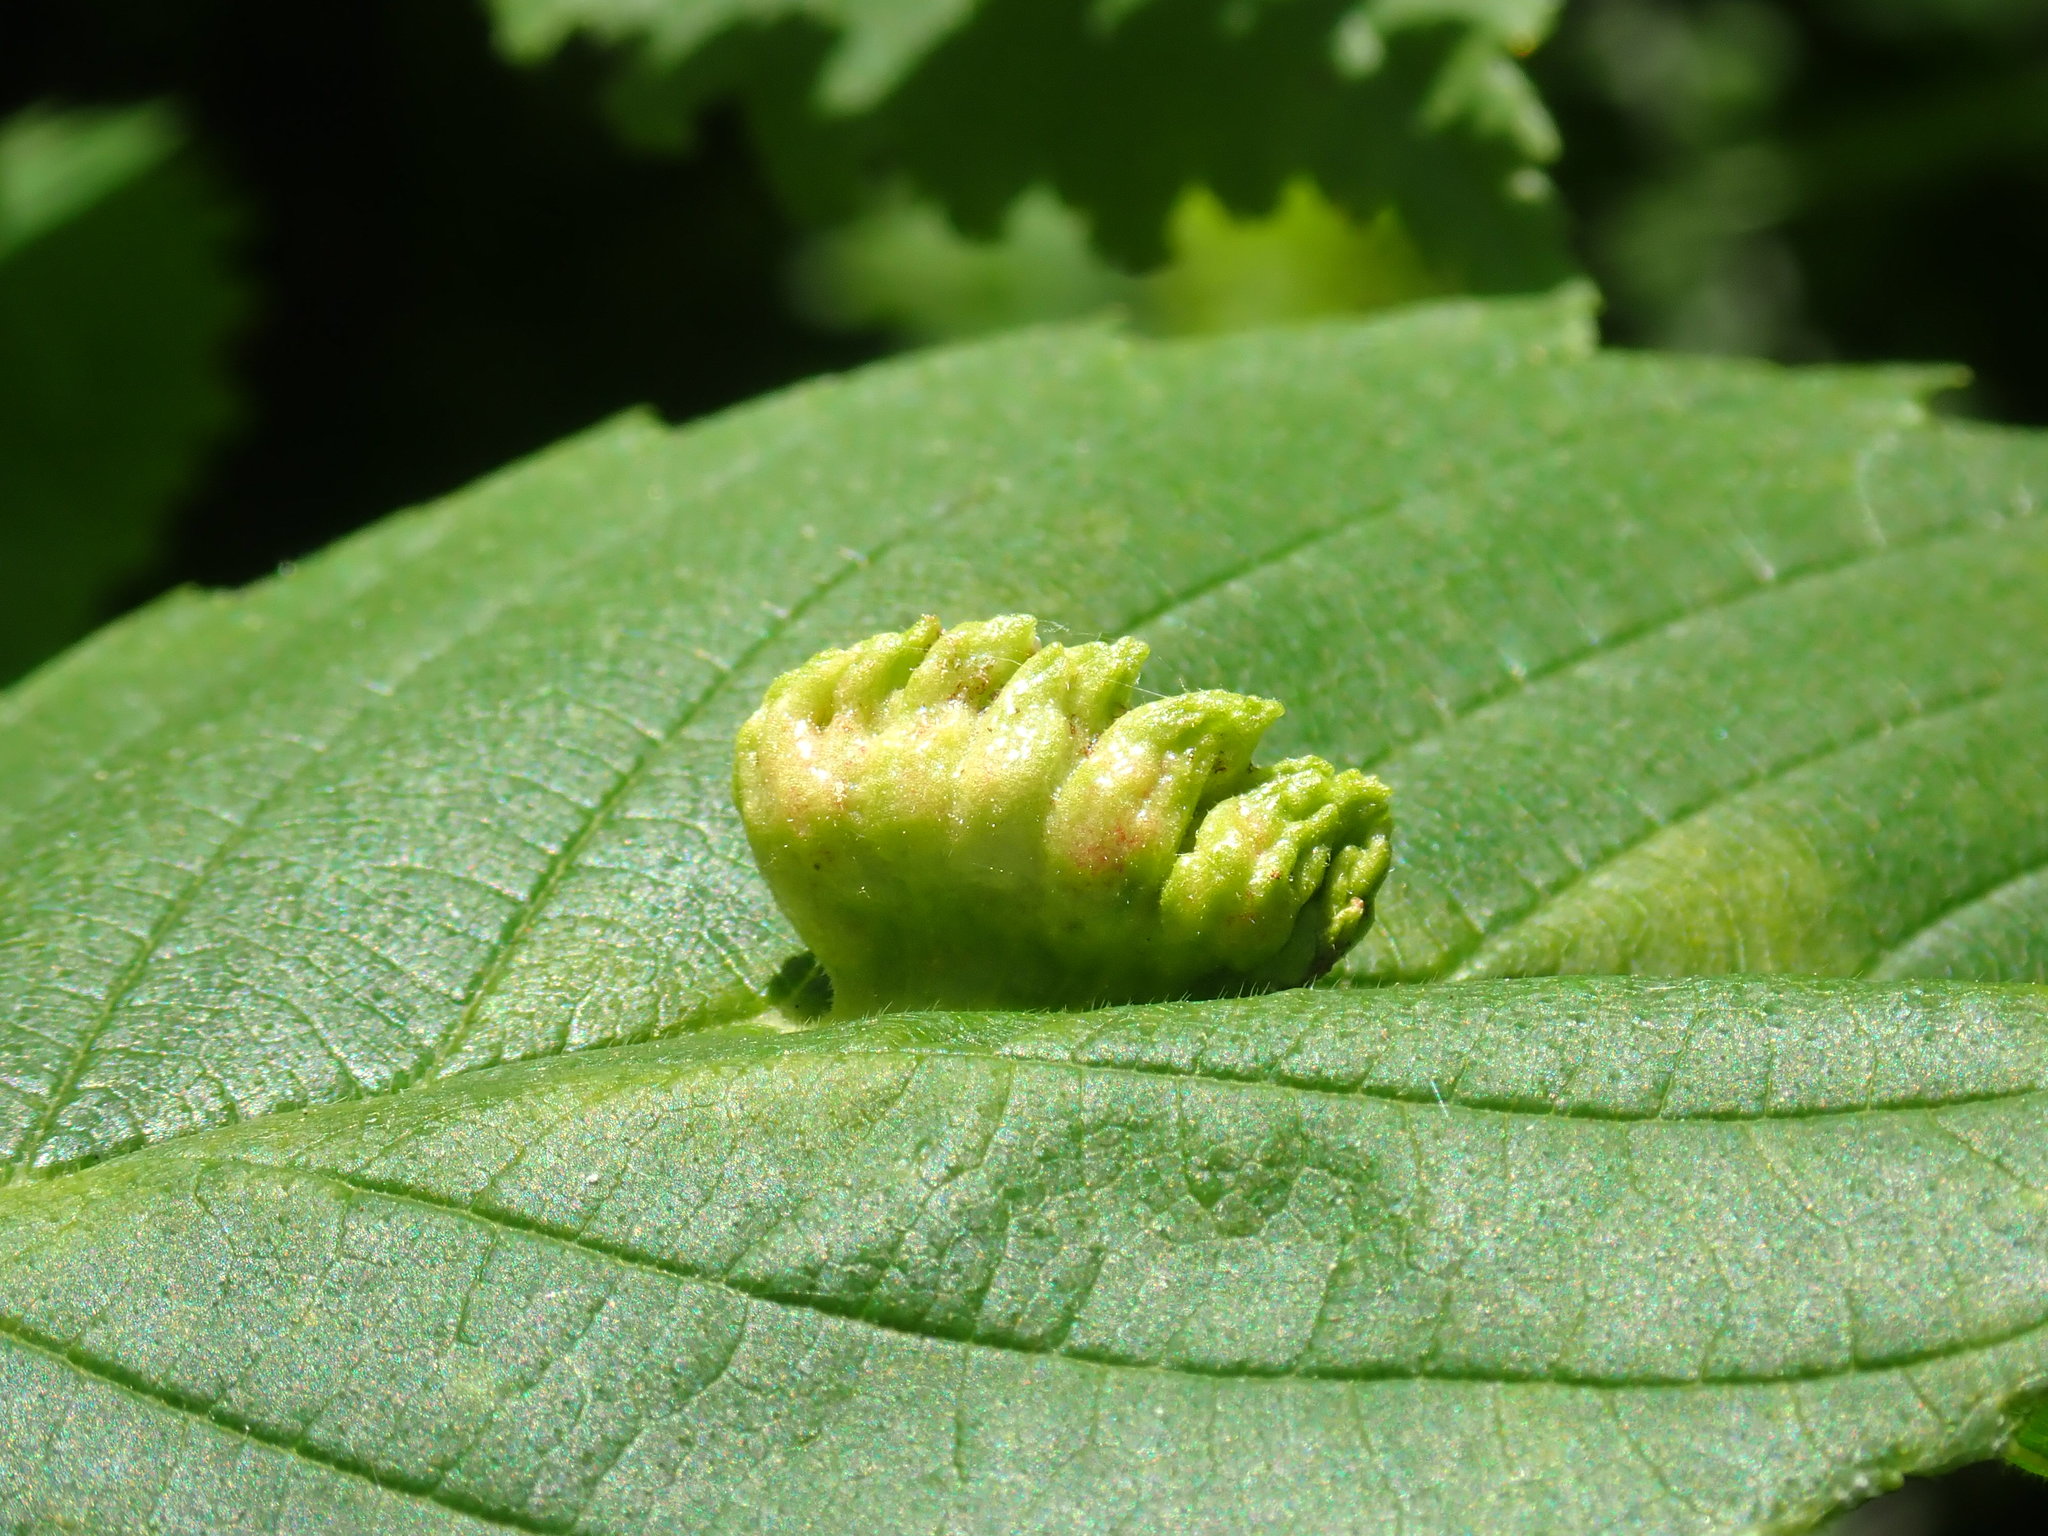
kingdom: Animalia
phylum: Arthropoda
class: Insecta
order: Hemiptera
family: Aphididae
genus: Colopha
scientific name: Colopha ulmicola
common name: Elm cockscombgall aphid
